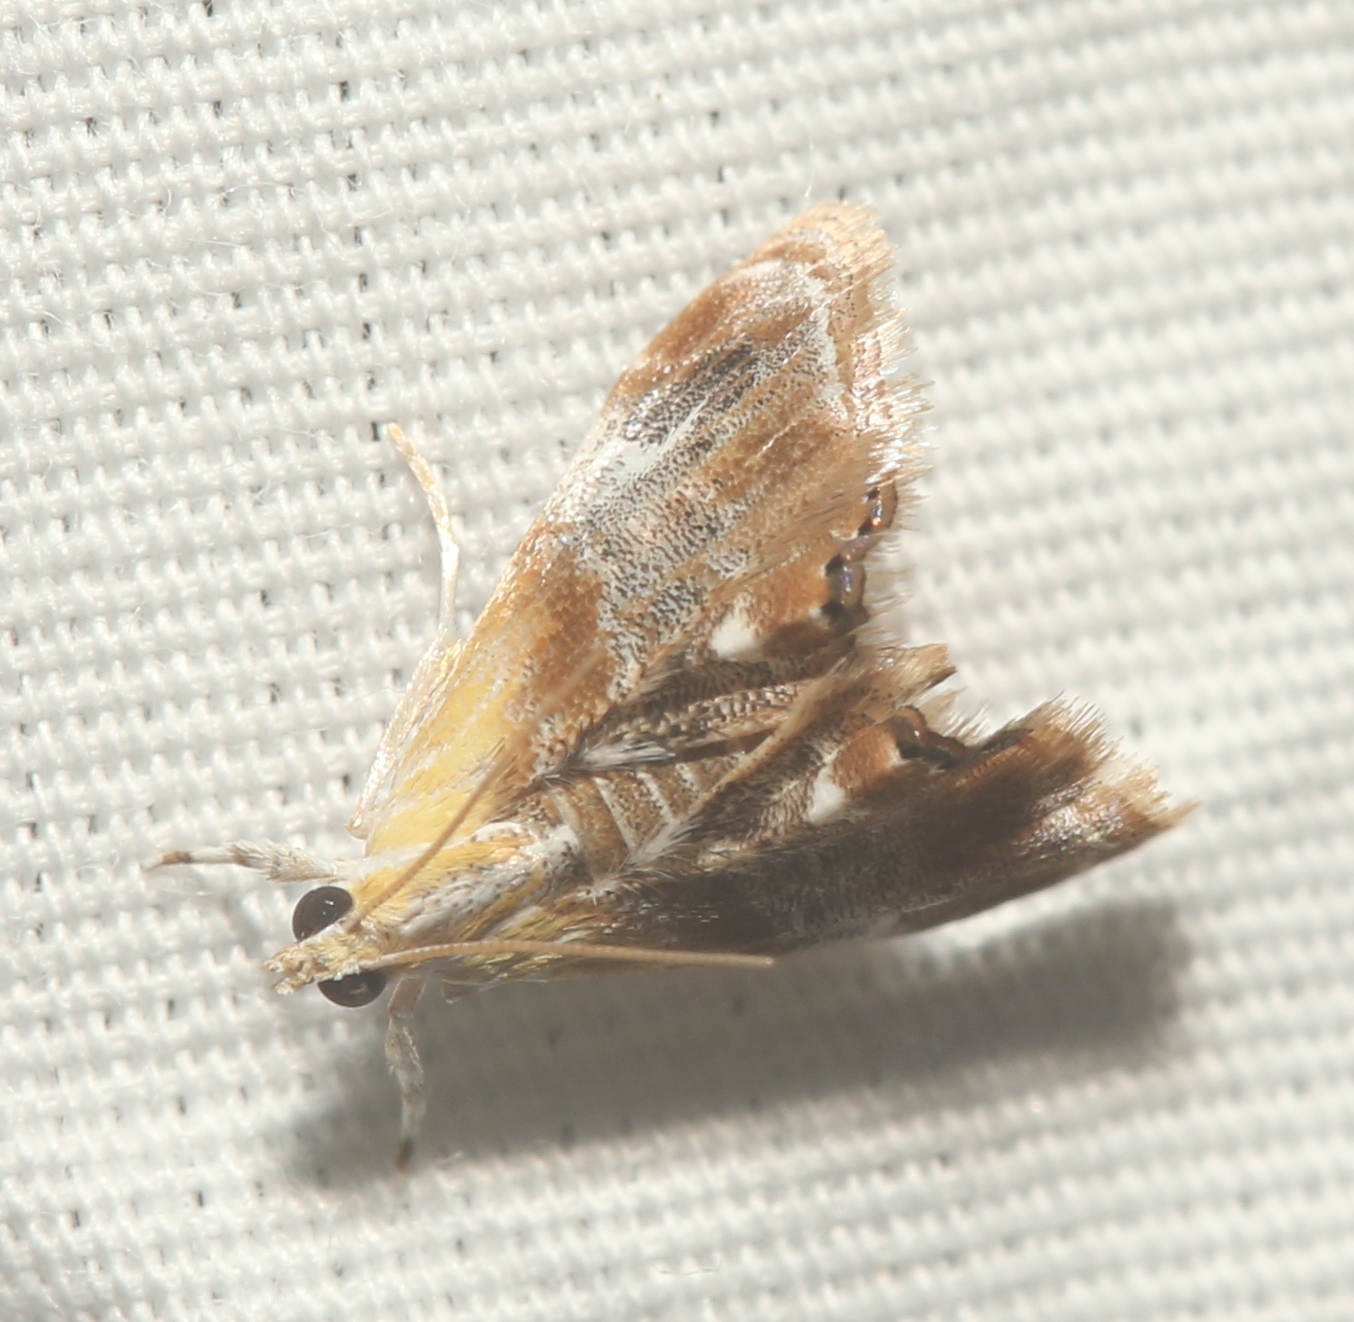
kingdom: Animalia
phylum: Arthropoda
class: Insecta
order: Lepidoptera
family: Crambidae
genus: Dicymolomia
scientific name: Dicymolomia julianalis
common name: Julia's dicymolomia moth
